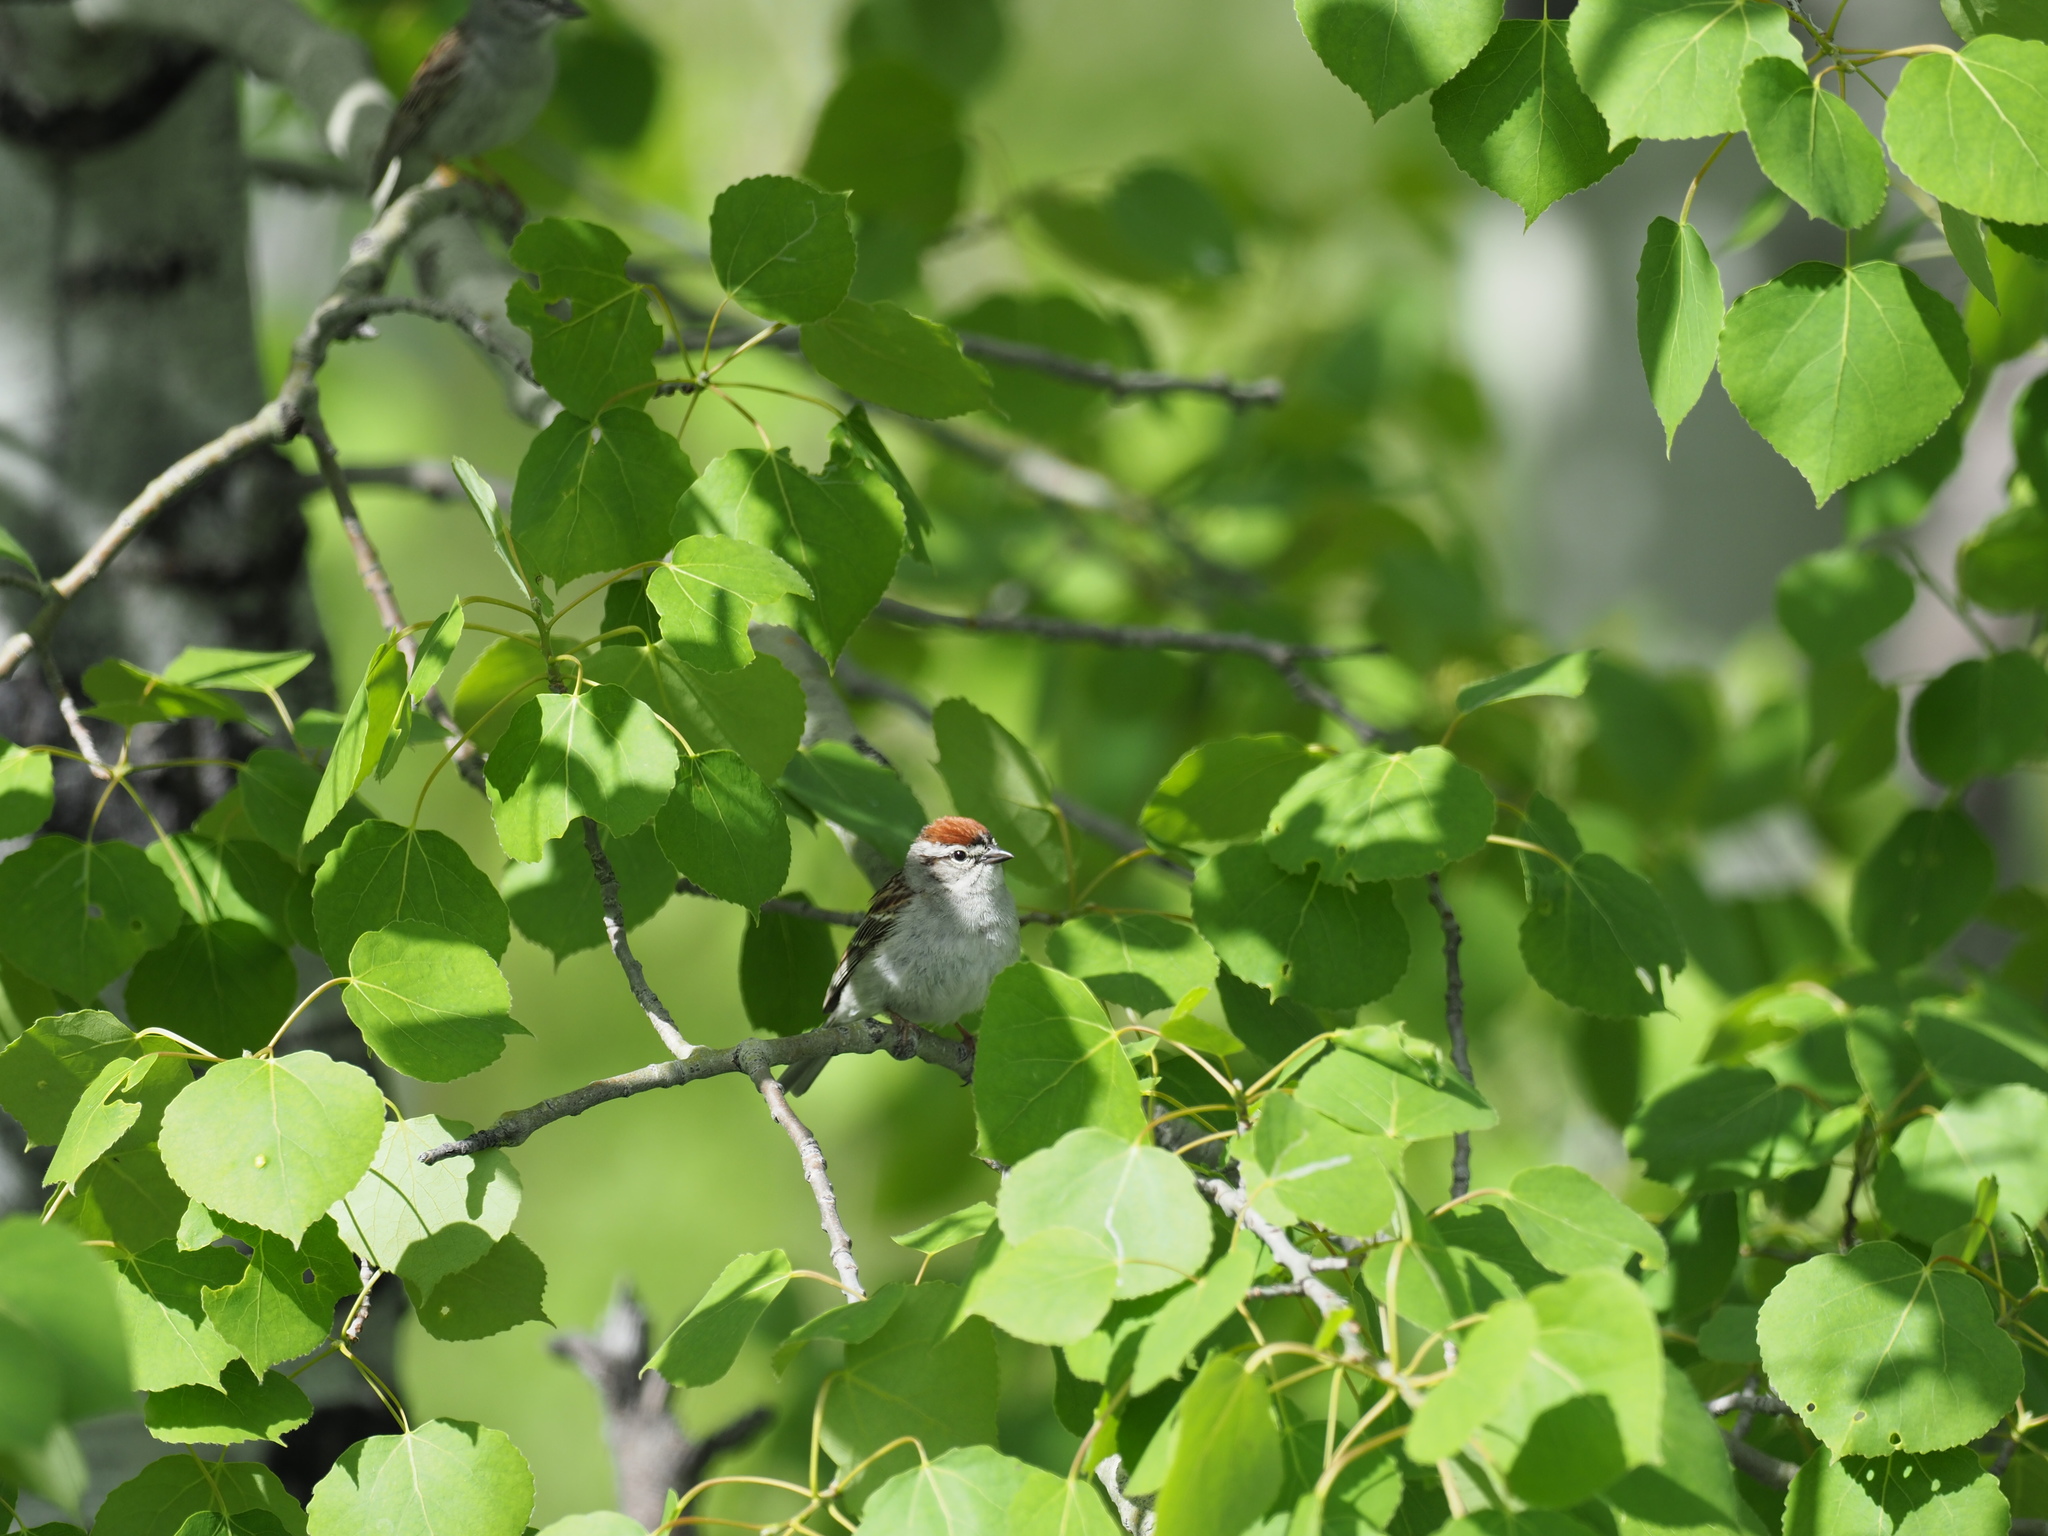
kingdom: Animalia
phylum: Chordata
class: Aves
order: Passeriformes
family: Passerellidae
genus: Spizella
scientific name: Spizella passerina
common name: Chipping sparrow
